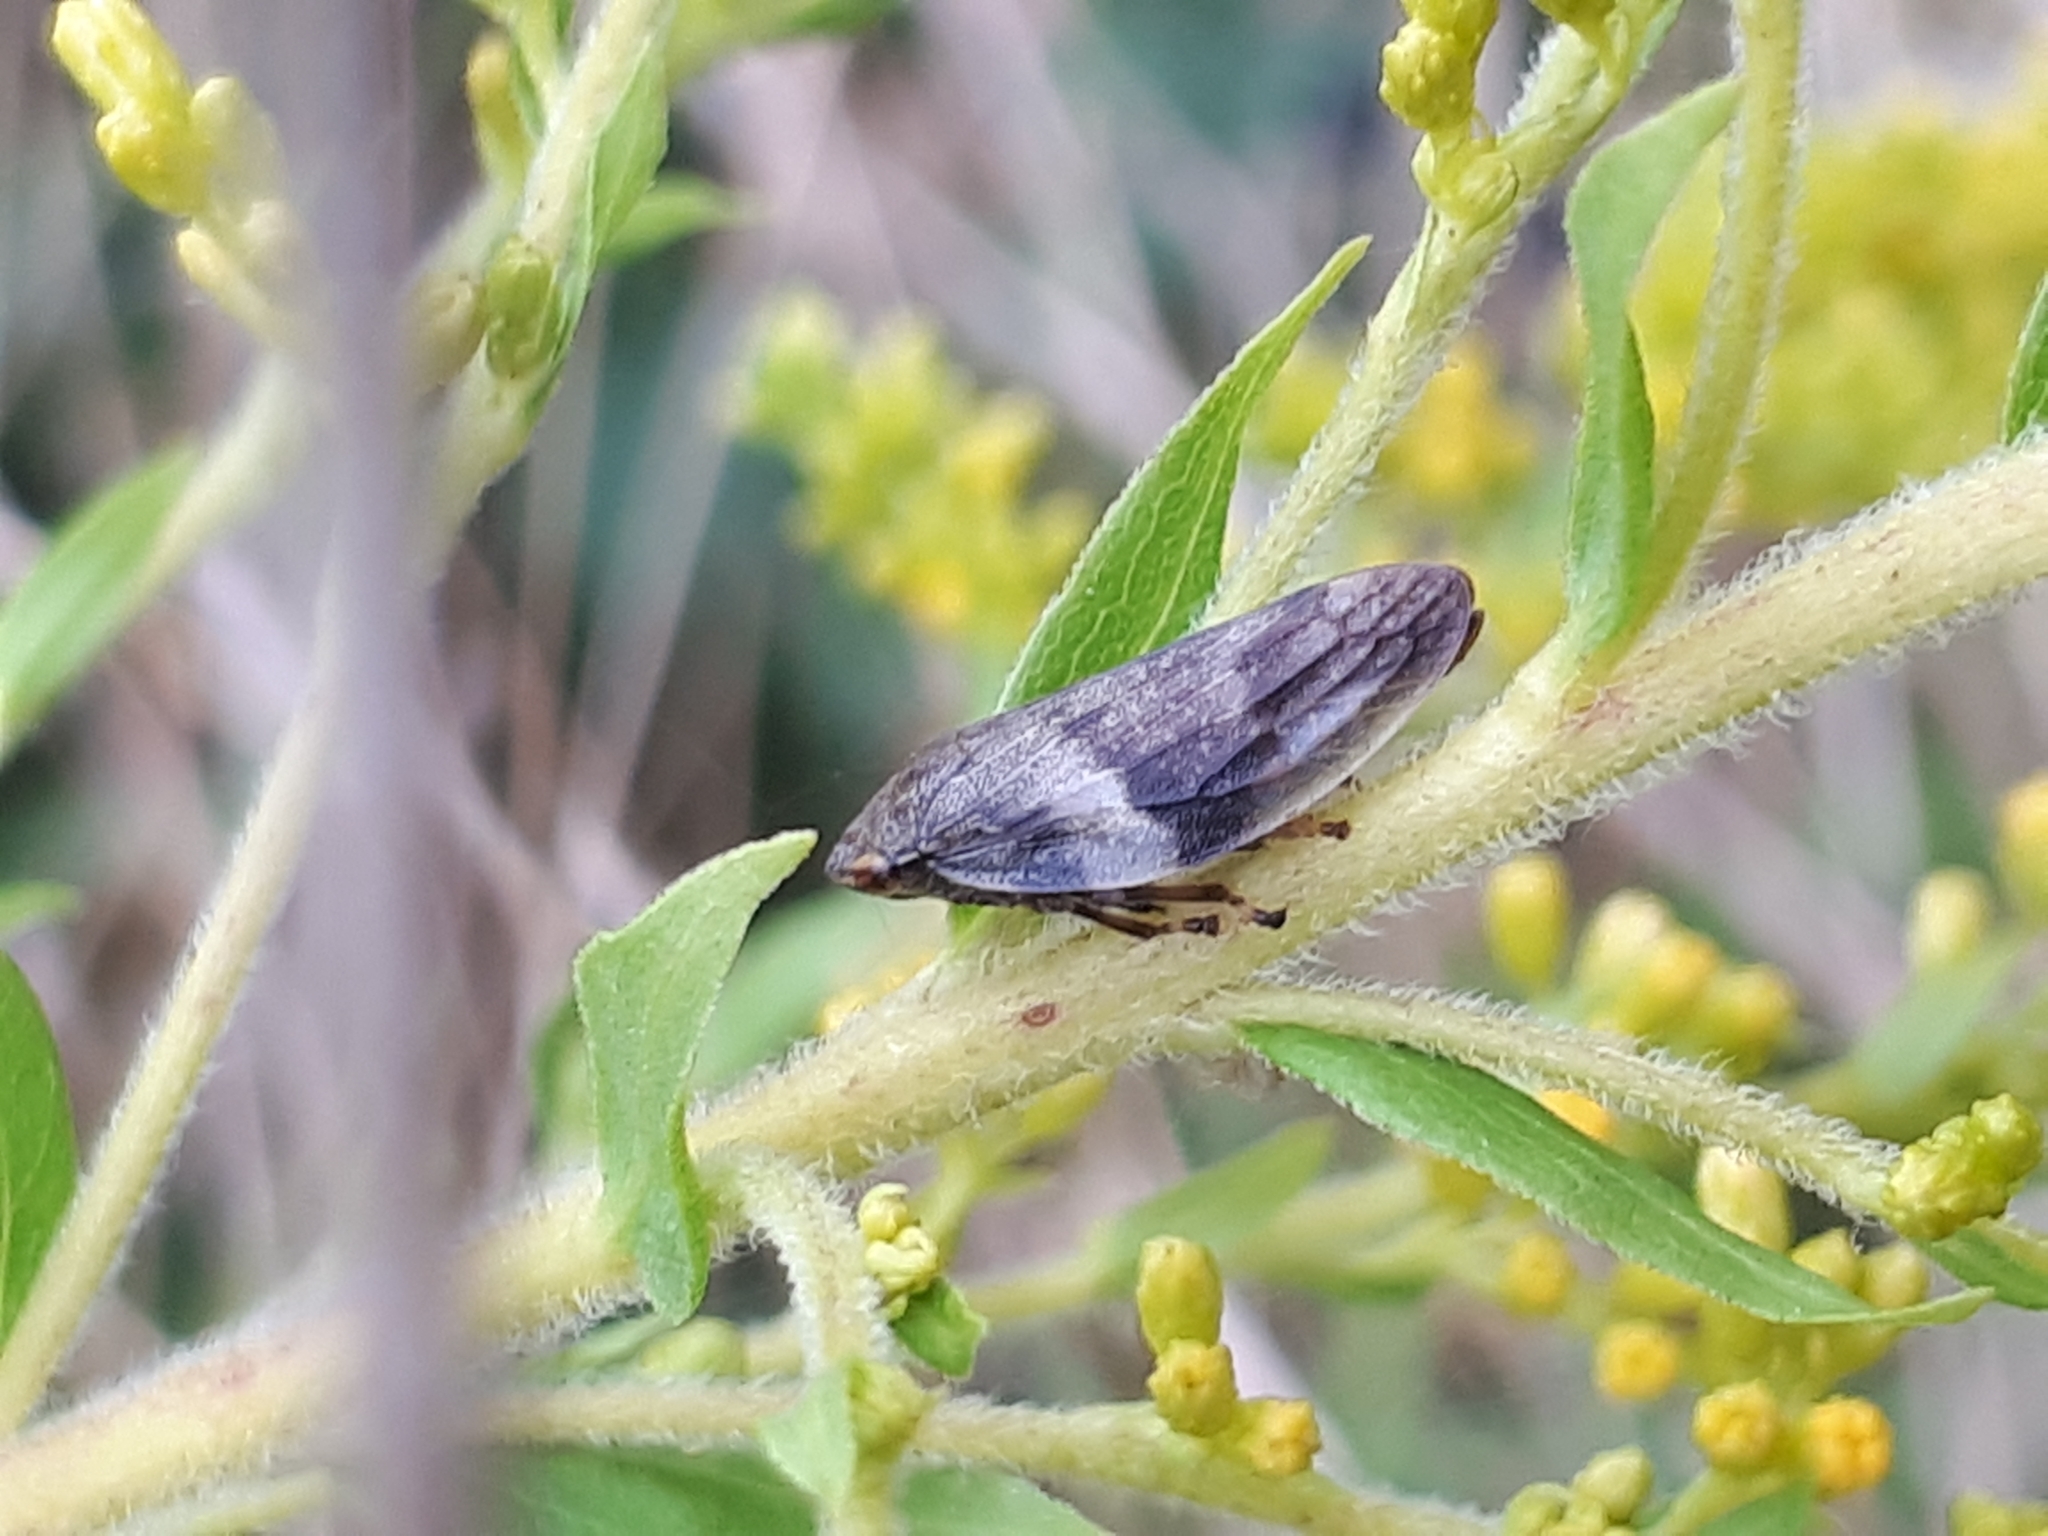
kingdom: Animalia
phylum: Arthropoda
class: Insecta
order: Hemiptera
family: Aphrophoridae
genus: Aphrophora
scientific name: Aphrophora alni
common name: European alder spittlebug
